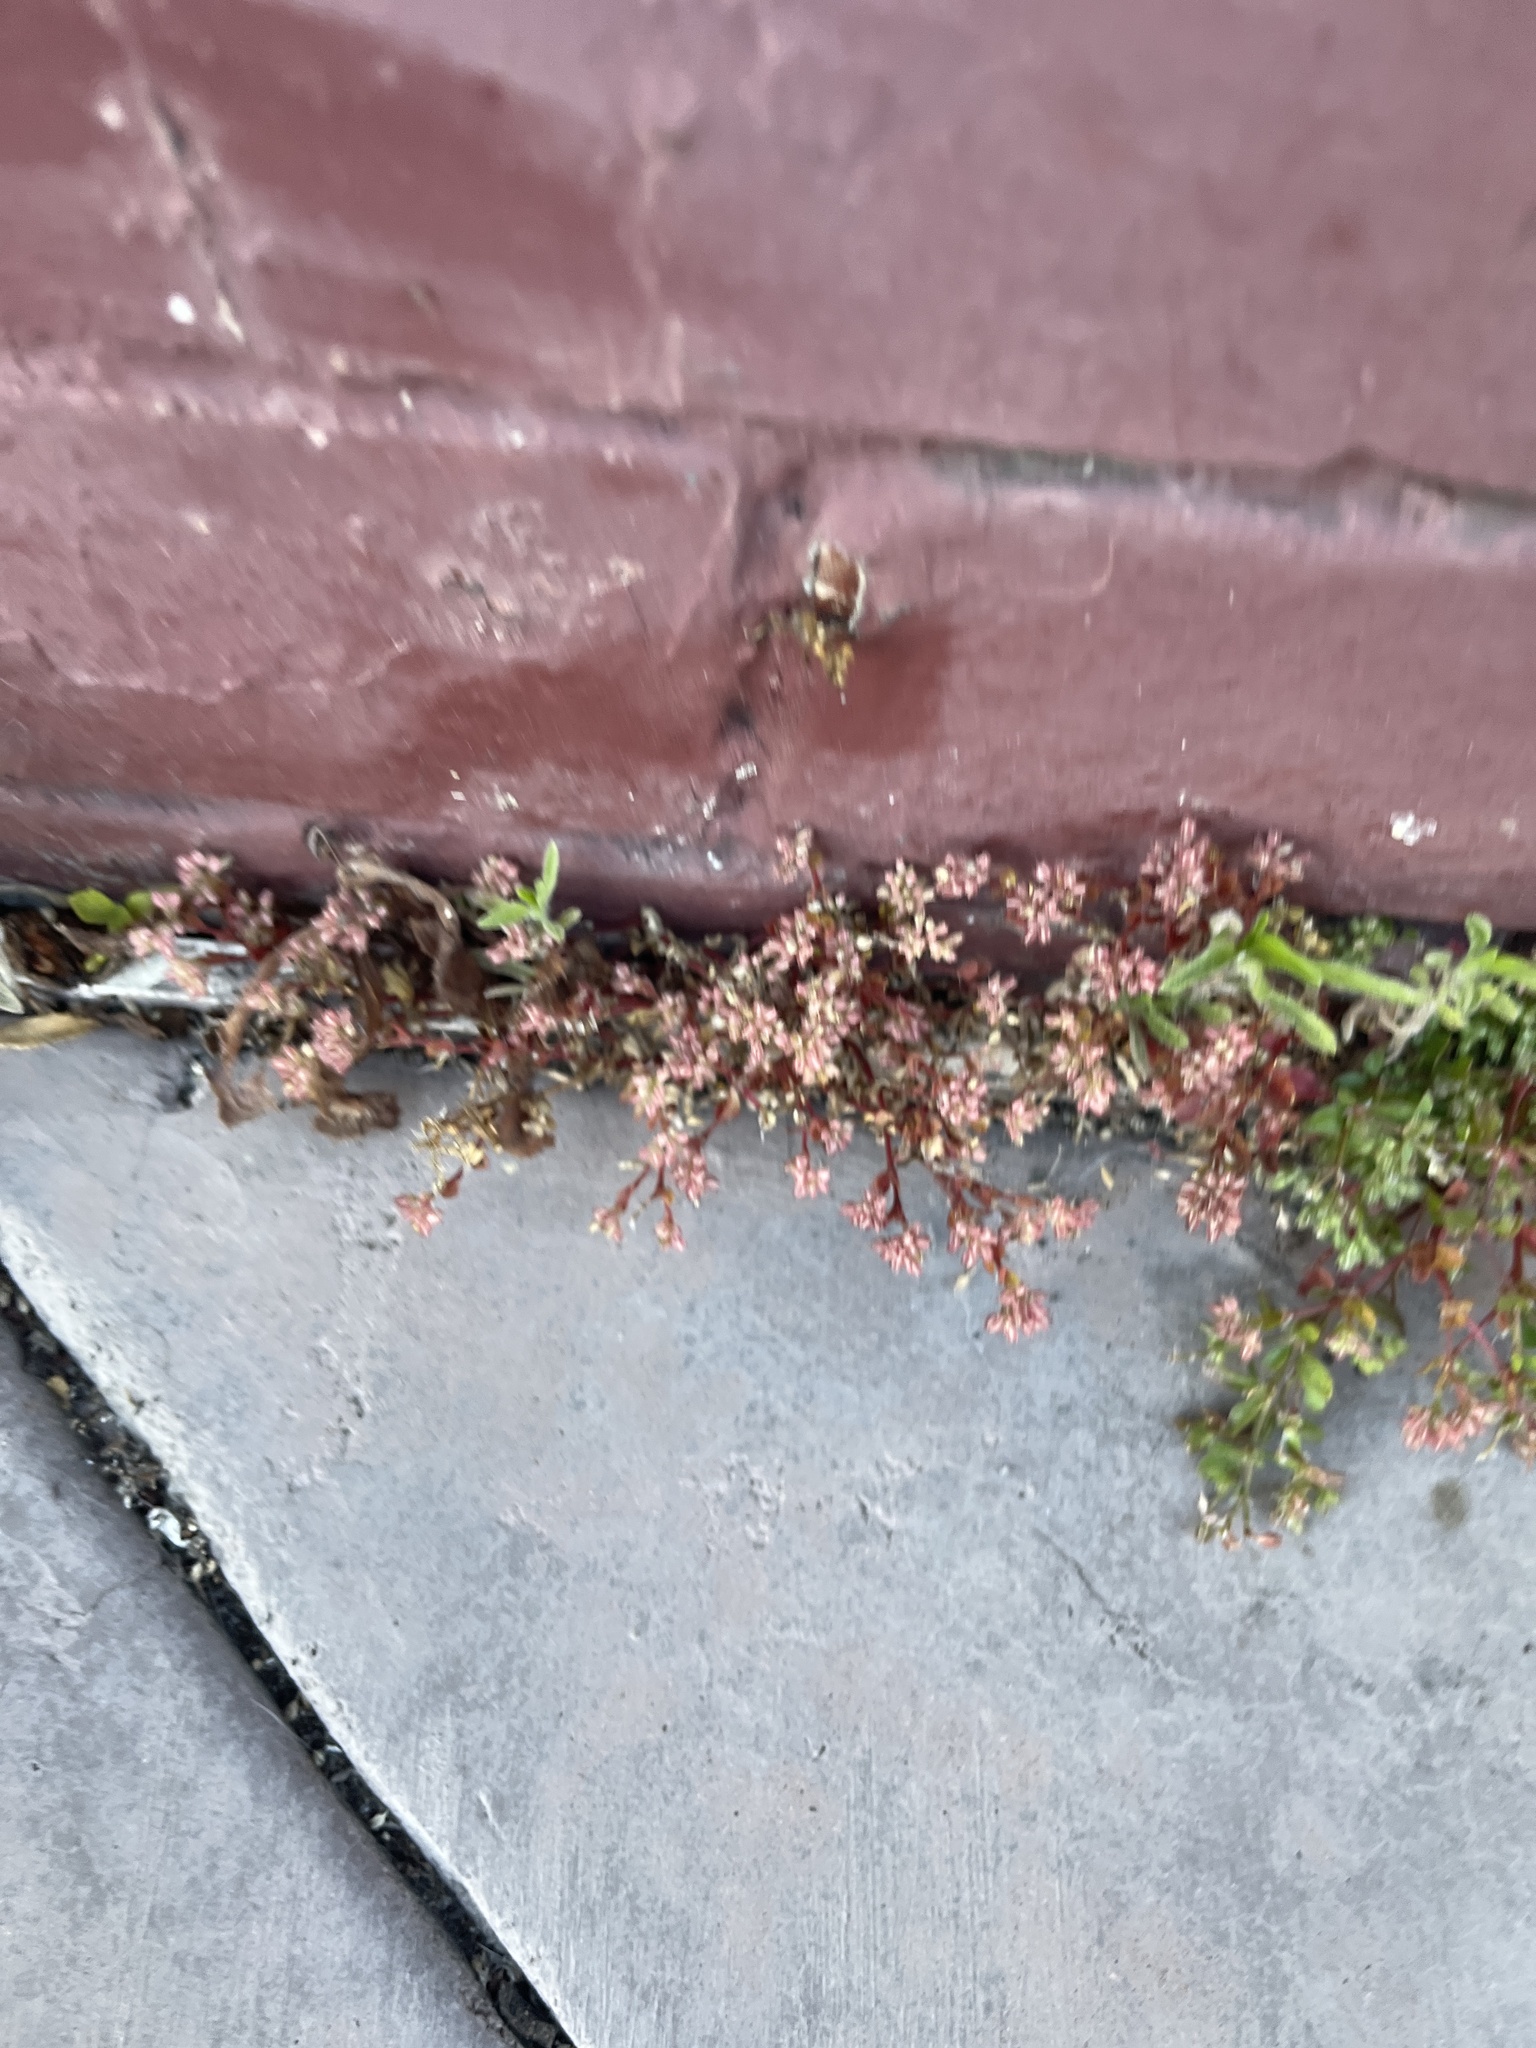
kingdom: Plantae
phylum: Tracheophyta
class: Magnoliopsida
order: Caryophyllales
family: Caryophyllaceae
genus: Polycarpon
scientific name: Polycarpon tetraphyllum
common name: Four-leaved all-seed
